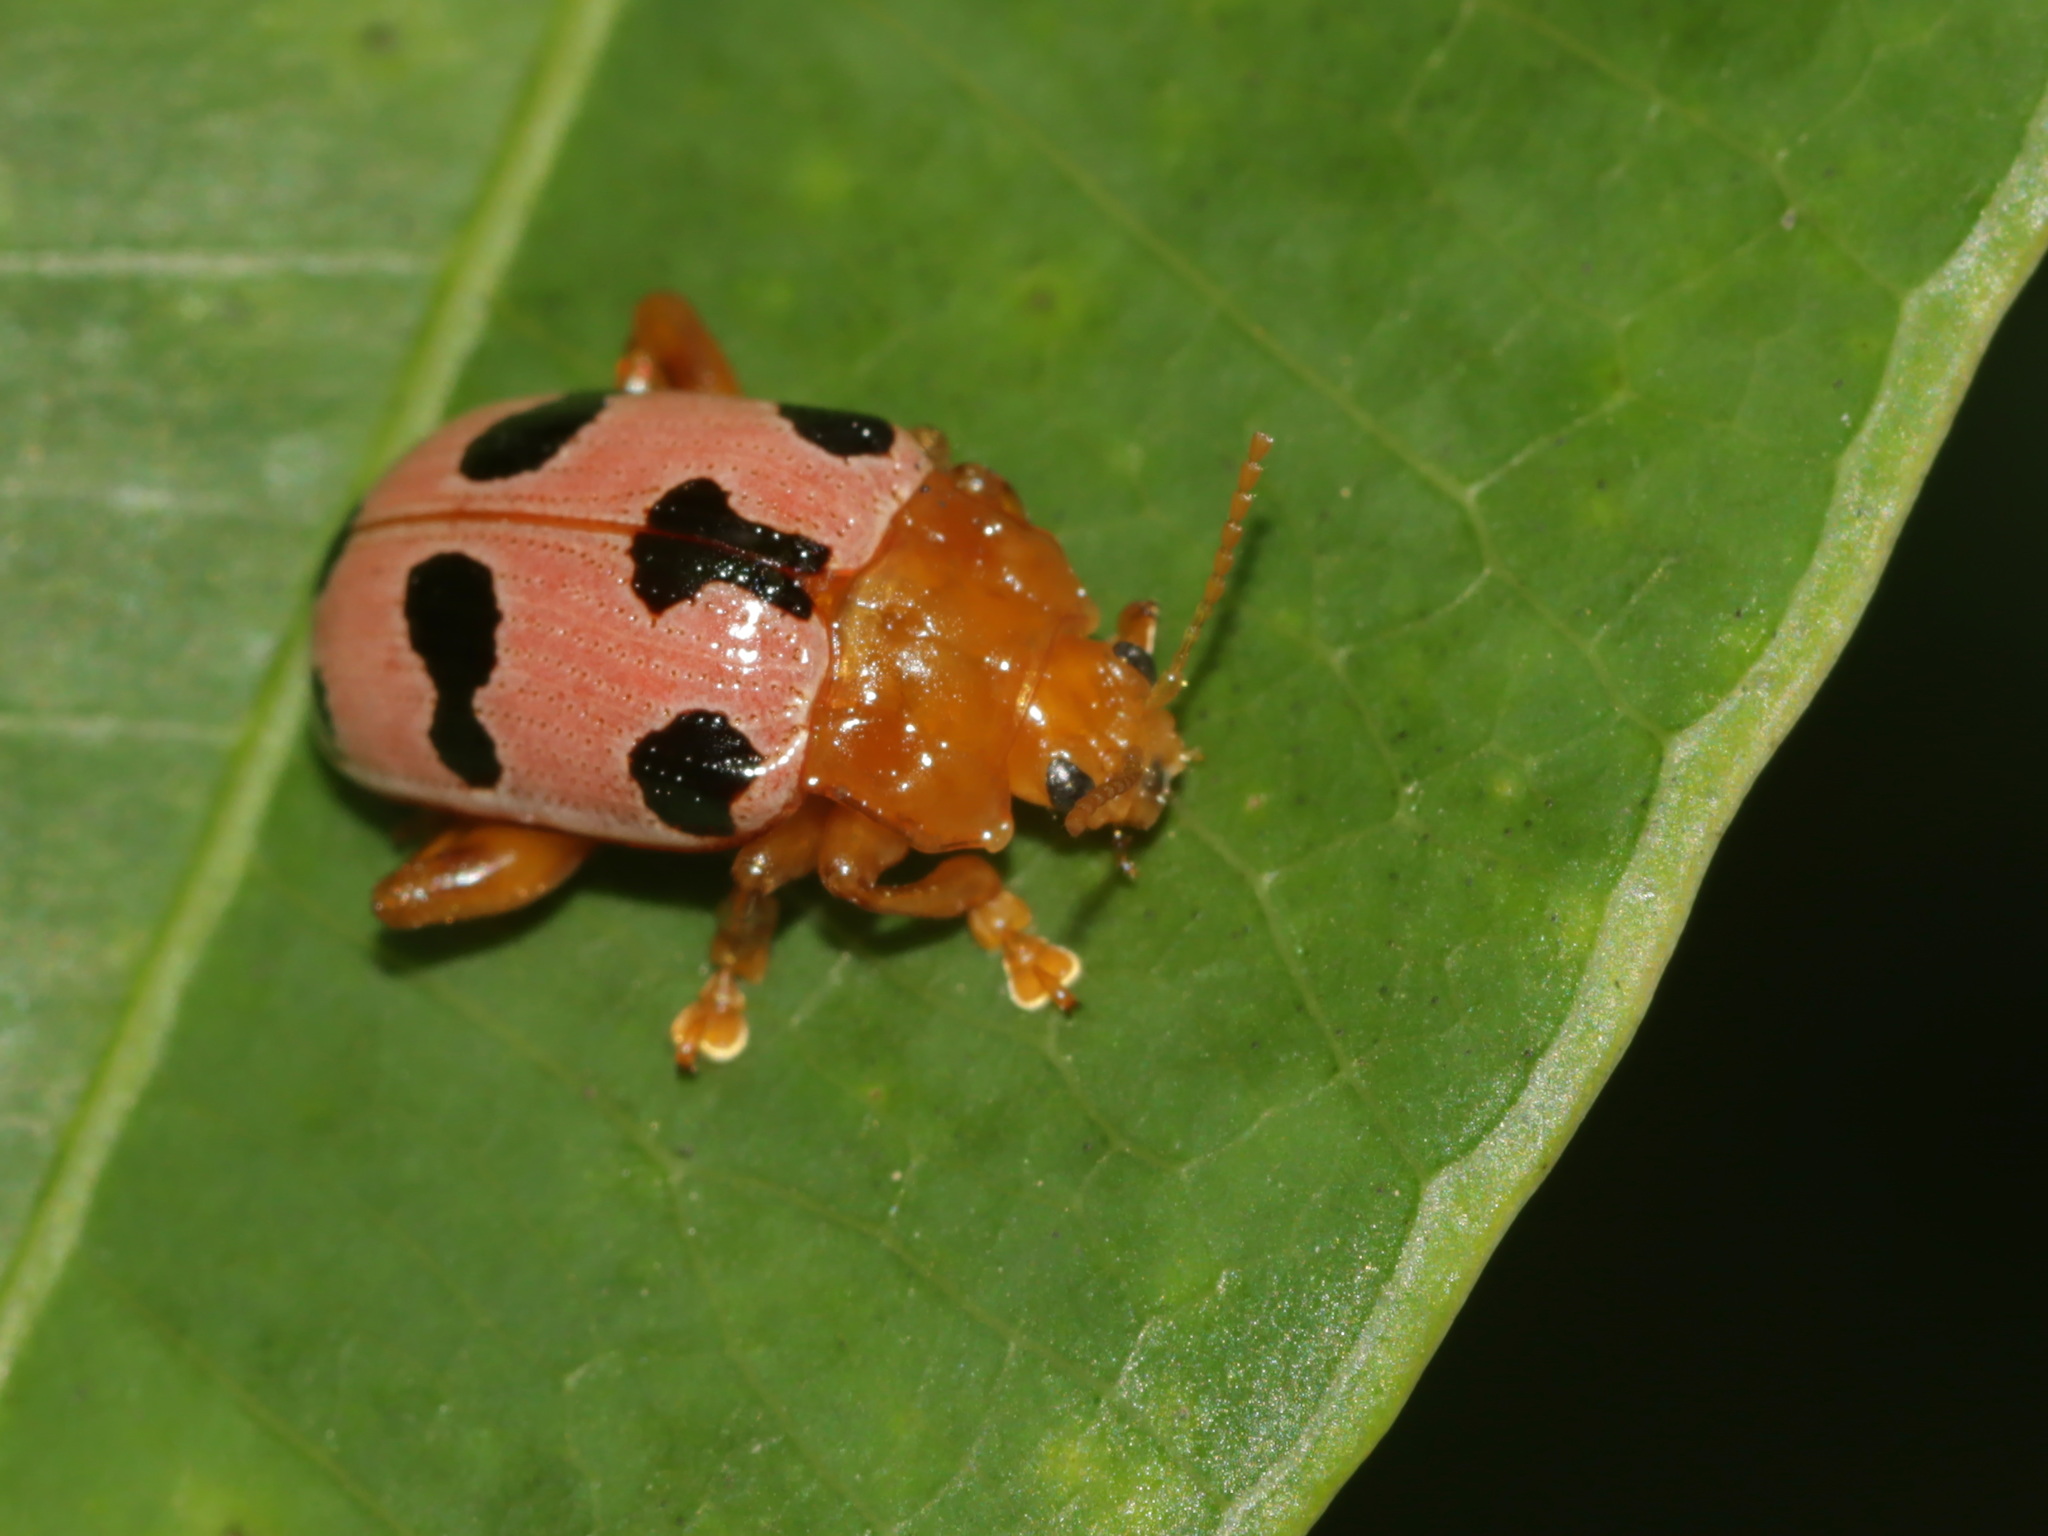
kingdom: Animalia
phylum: Arthropoda
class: Insecta
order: Coleoptera
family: Chrysomelidae
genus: Podontia
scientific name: Podontia
